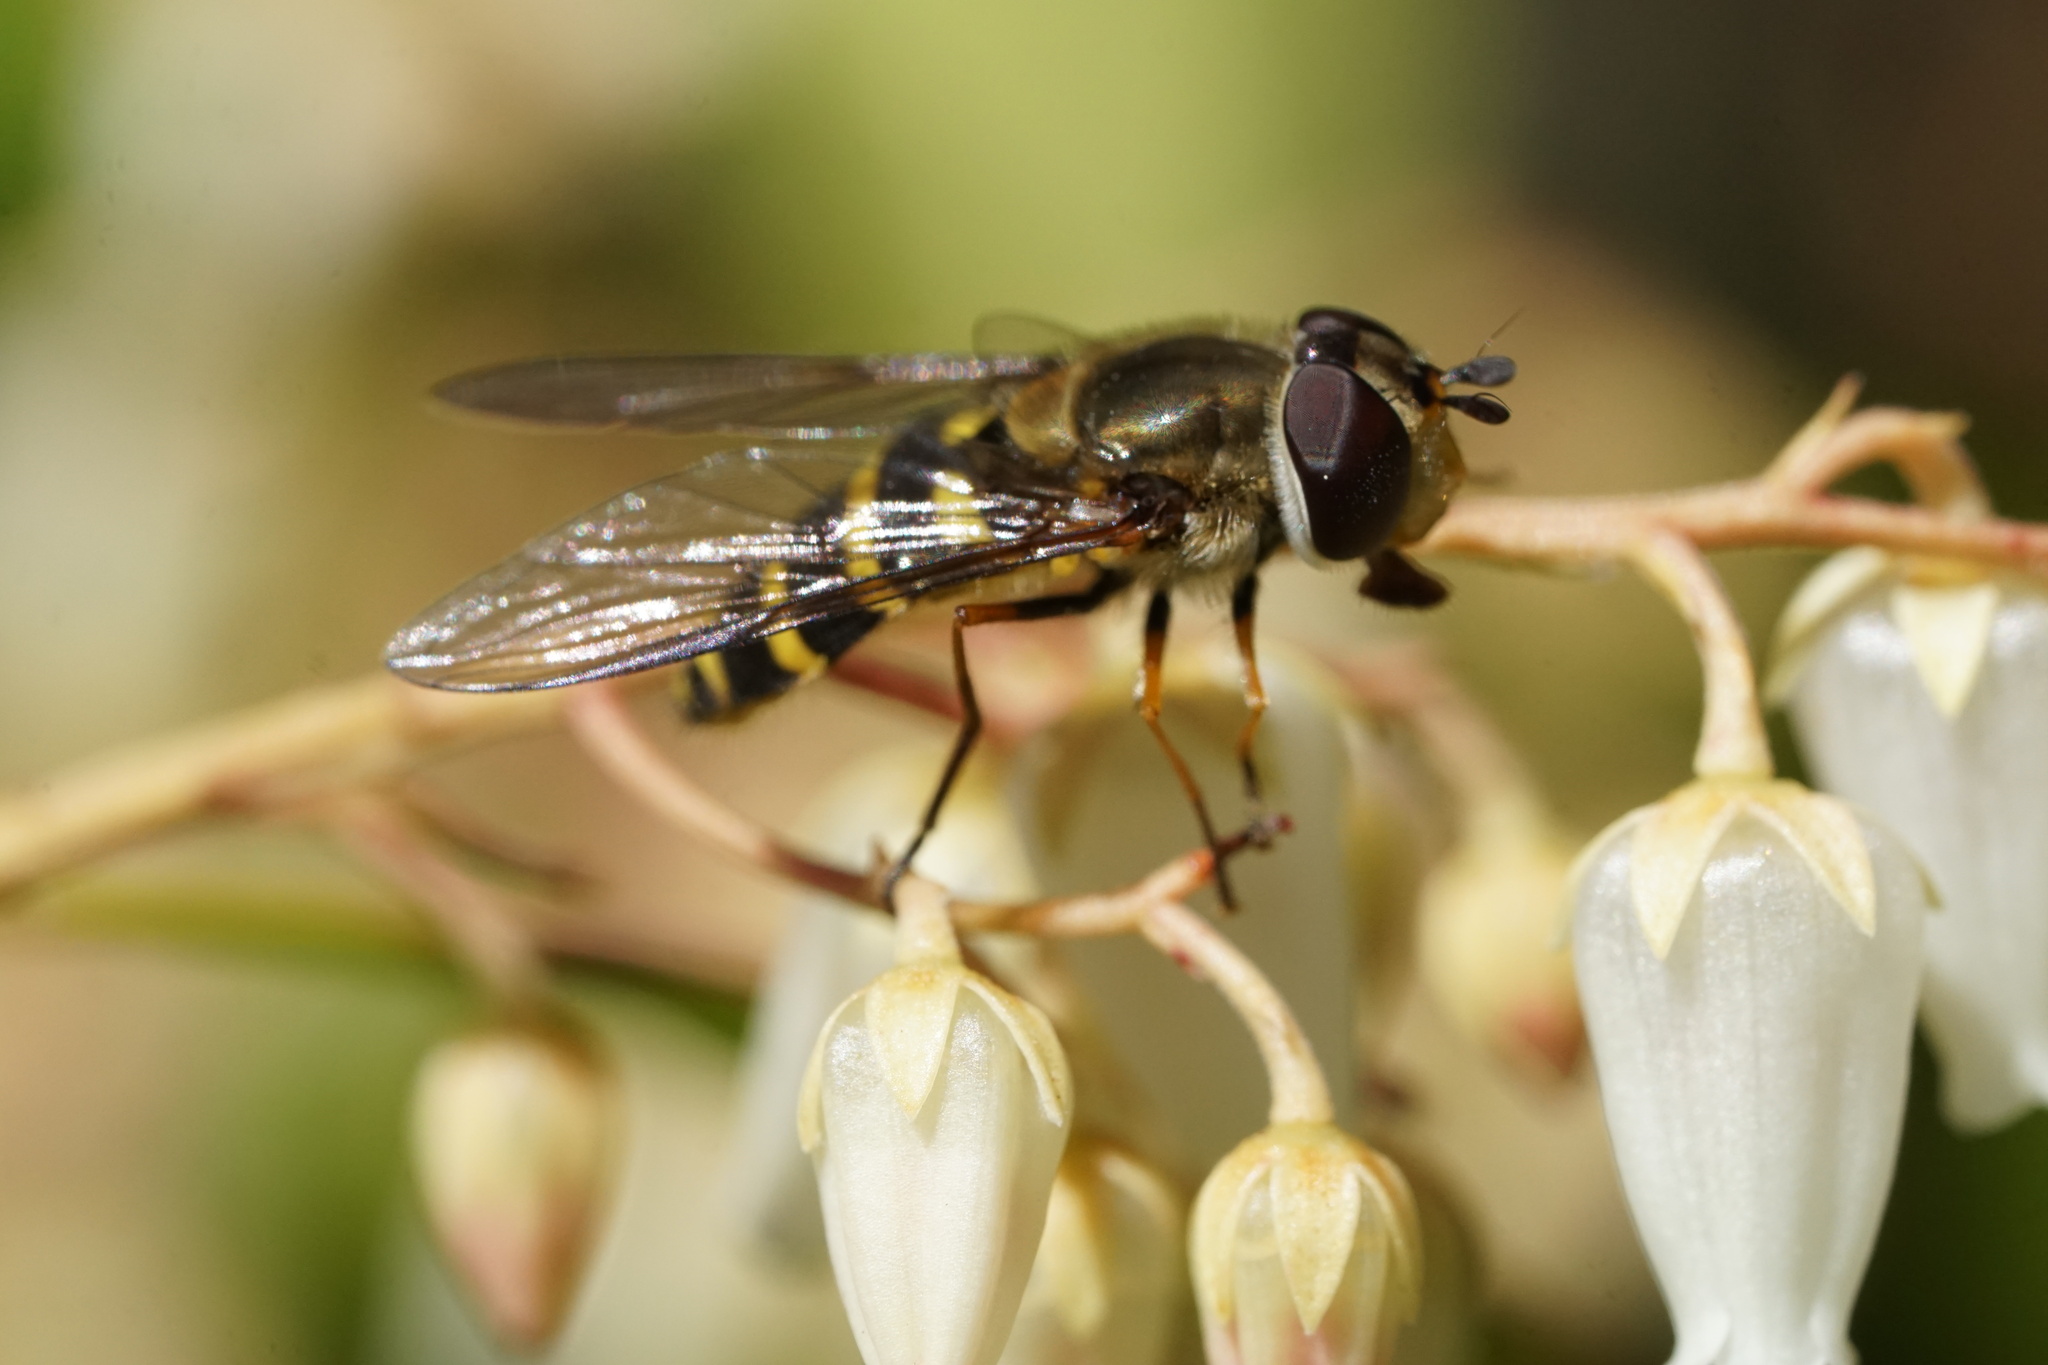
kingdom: Animalia
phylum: Arthropoda
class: Insecta
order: Diptera
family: Syrphidae
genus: Syrphus
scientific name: Syrphus torvus
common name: Hairy-eyed flower fly
